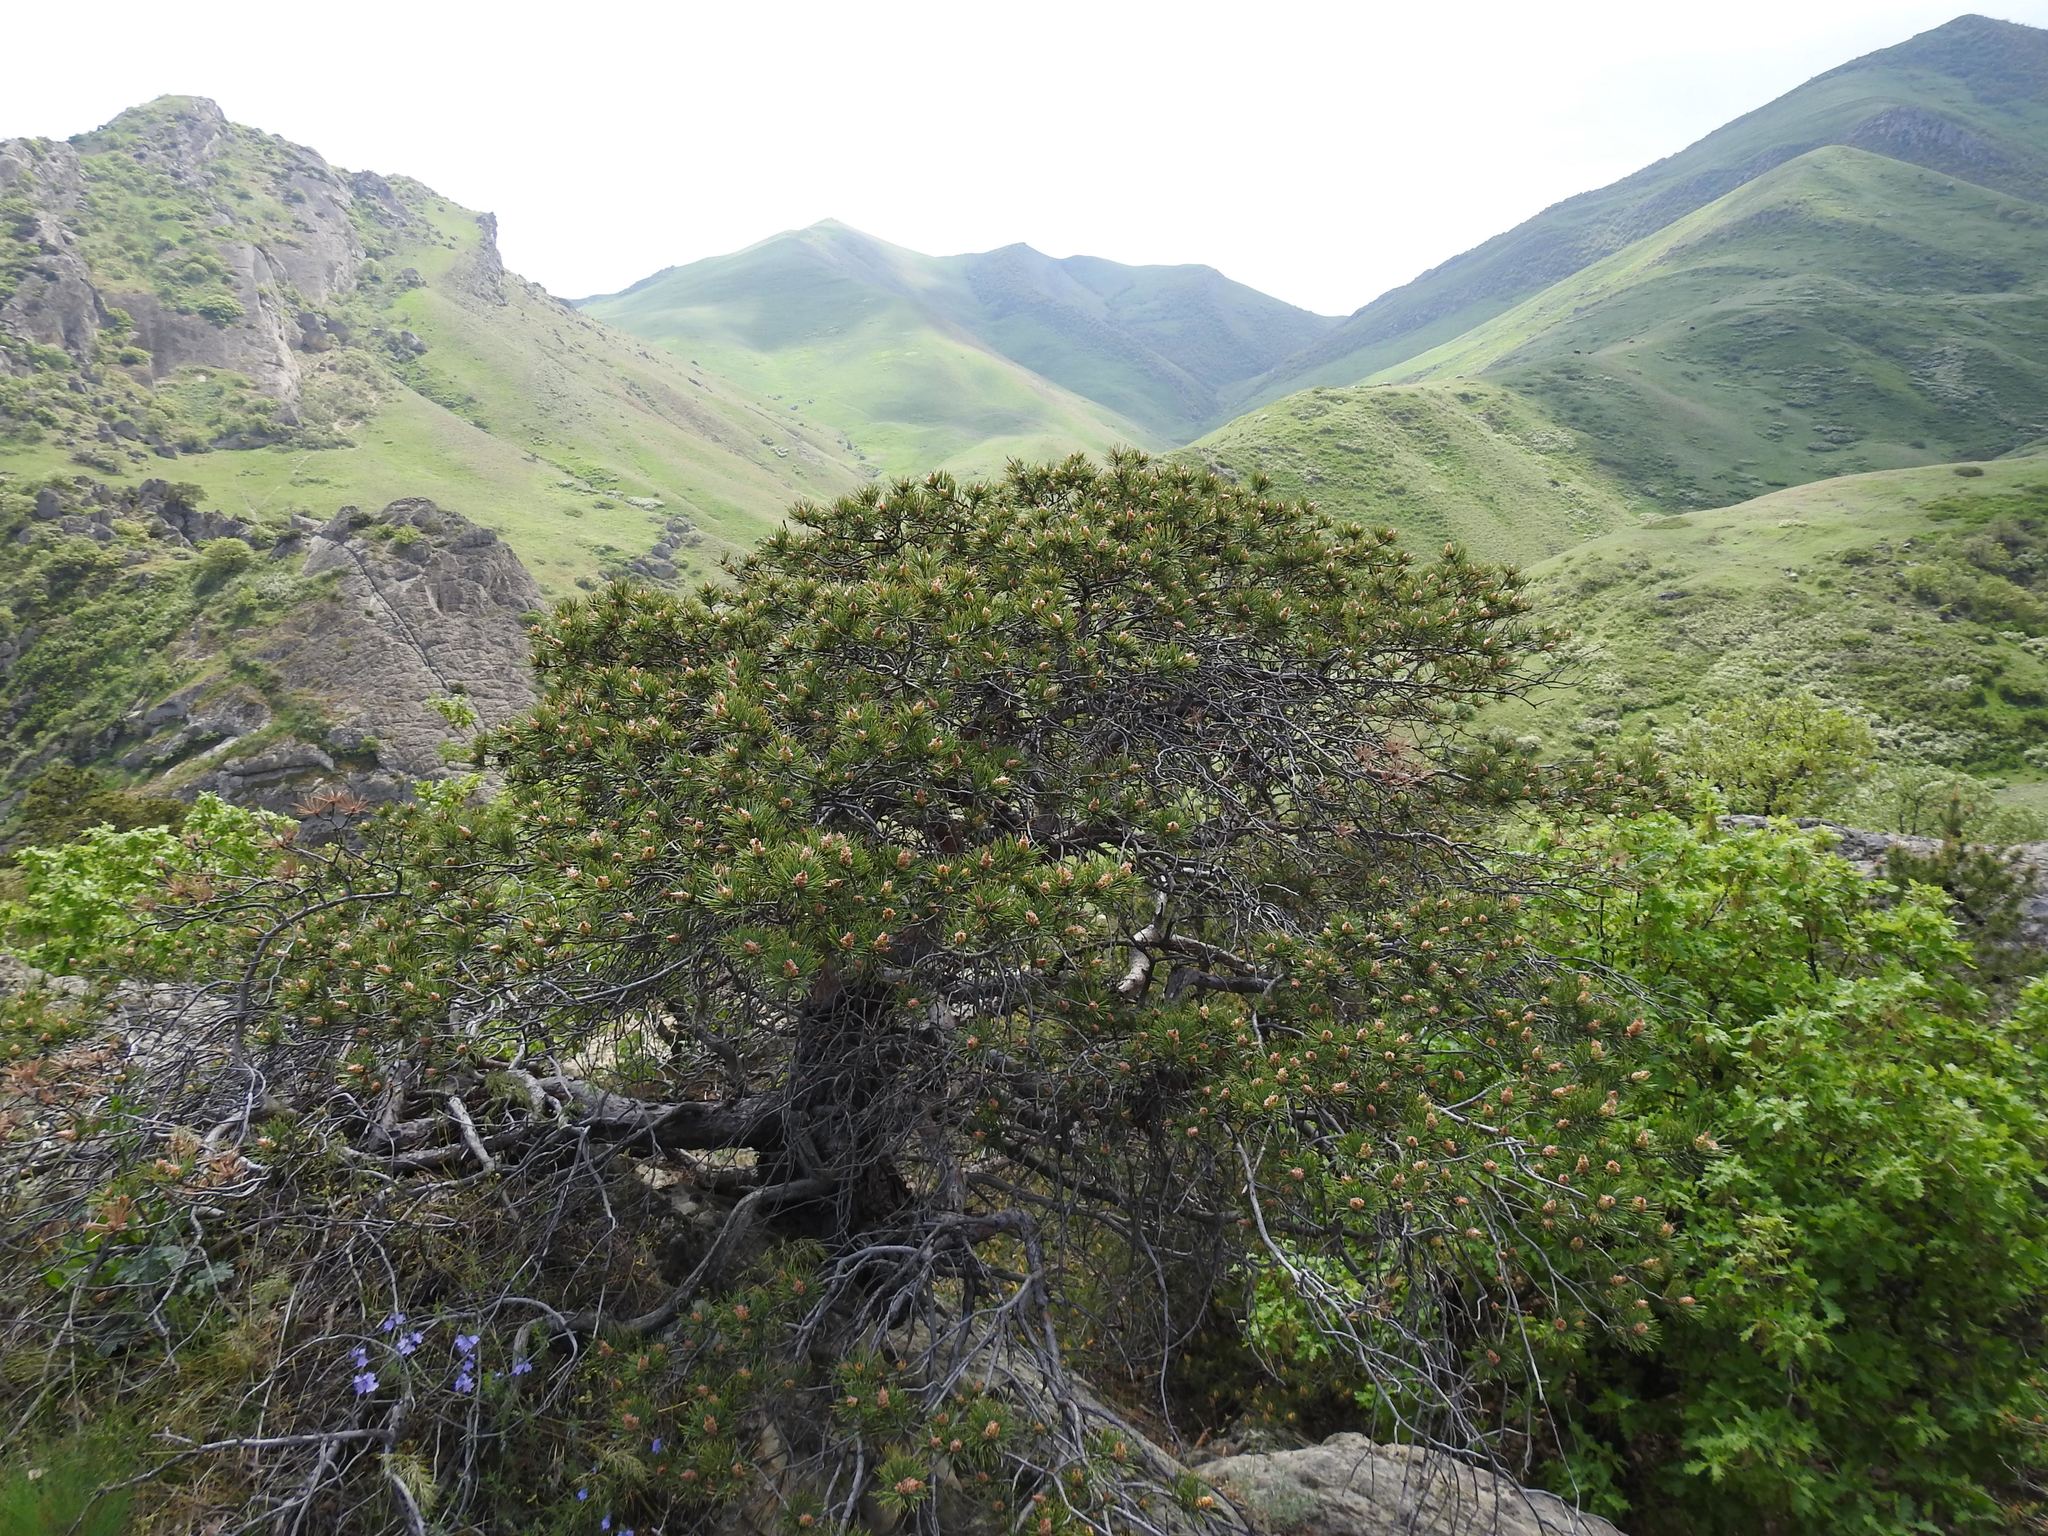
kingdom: Plantae
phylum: Tracheophyta
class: Pinopsida
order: Pinales
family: Pinaceae
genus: Pinus
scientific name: Pinus sylvestris
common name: Scots pine
